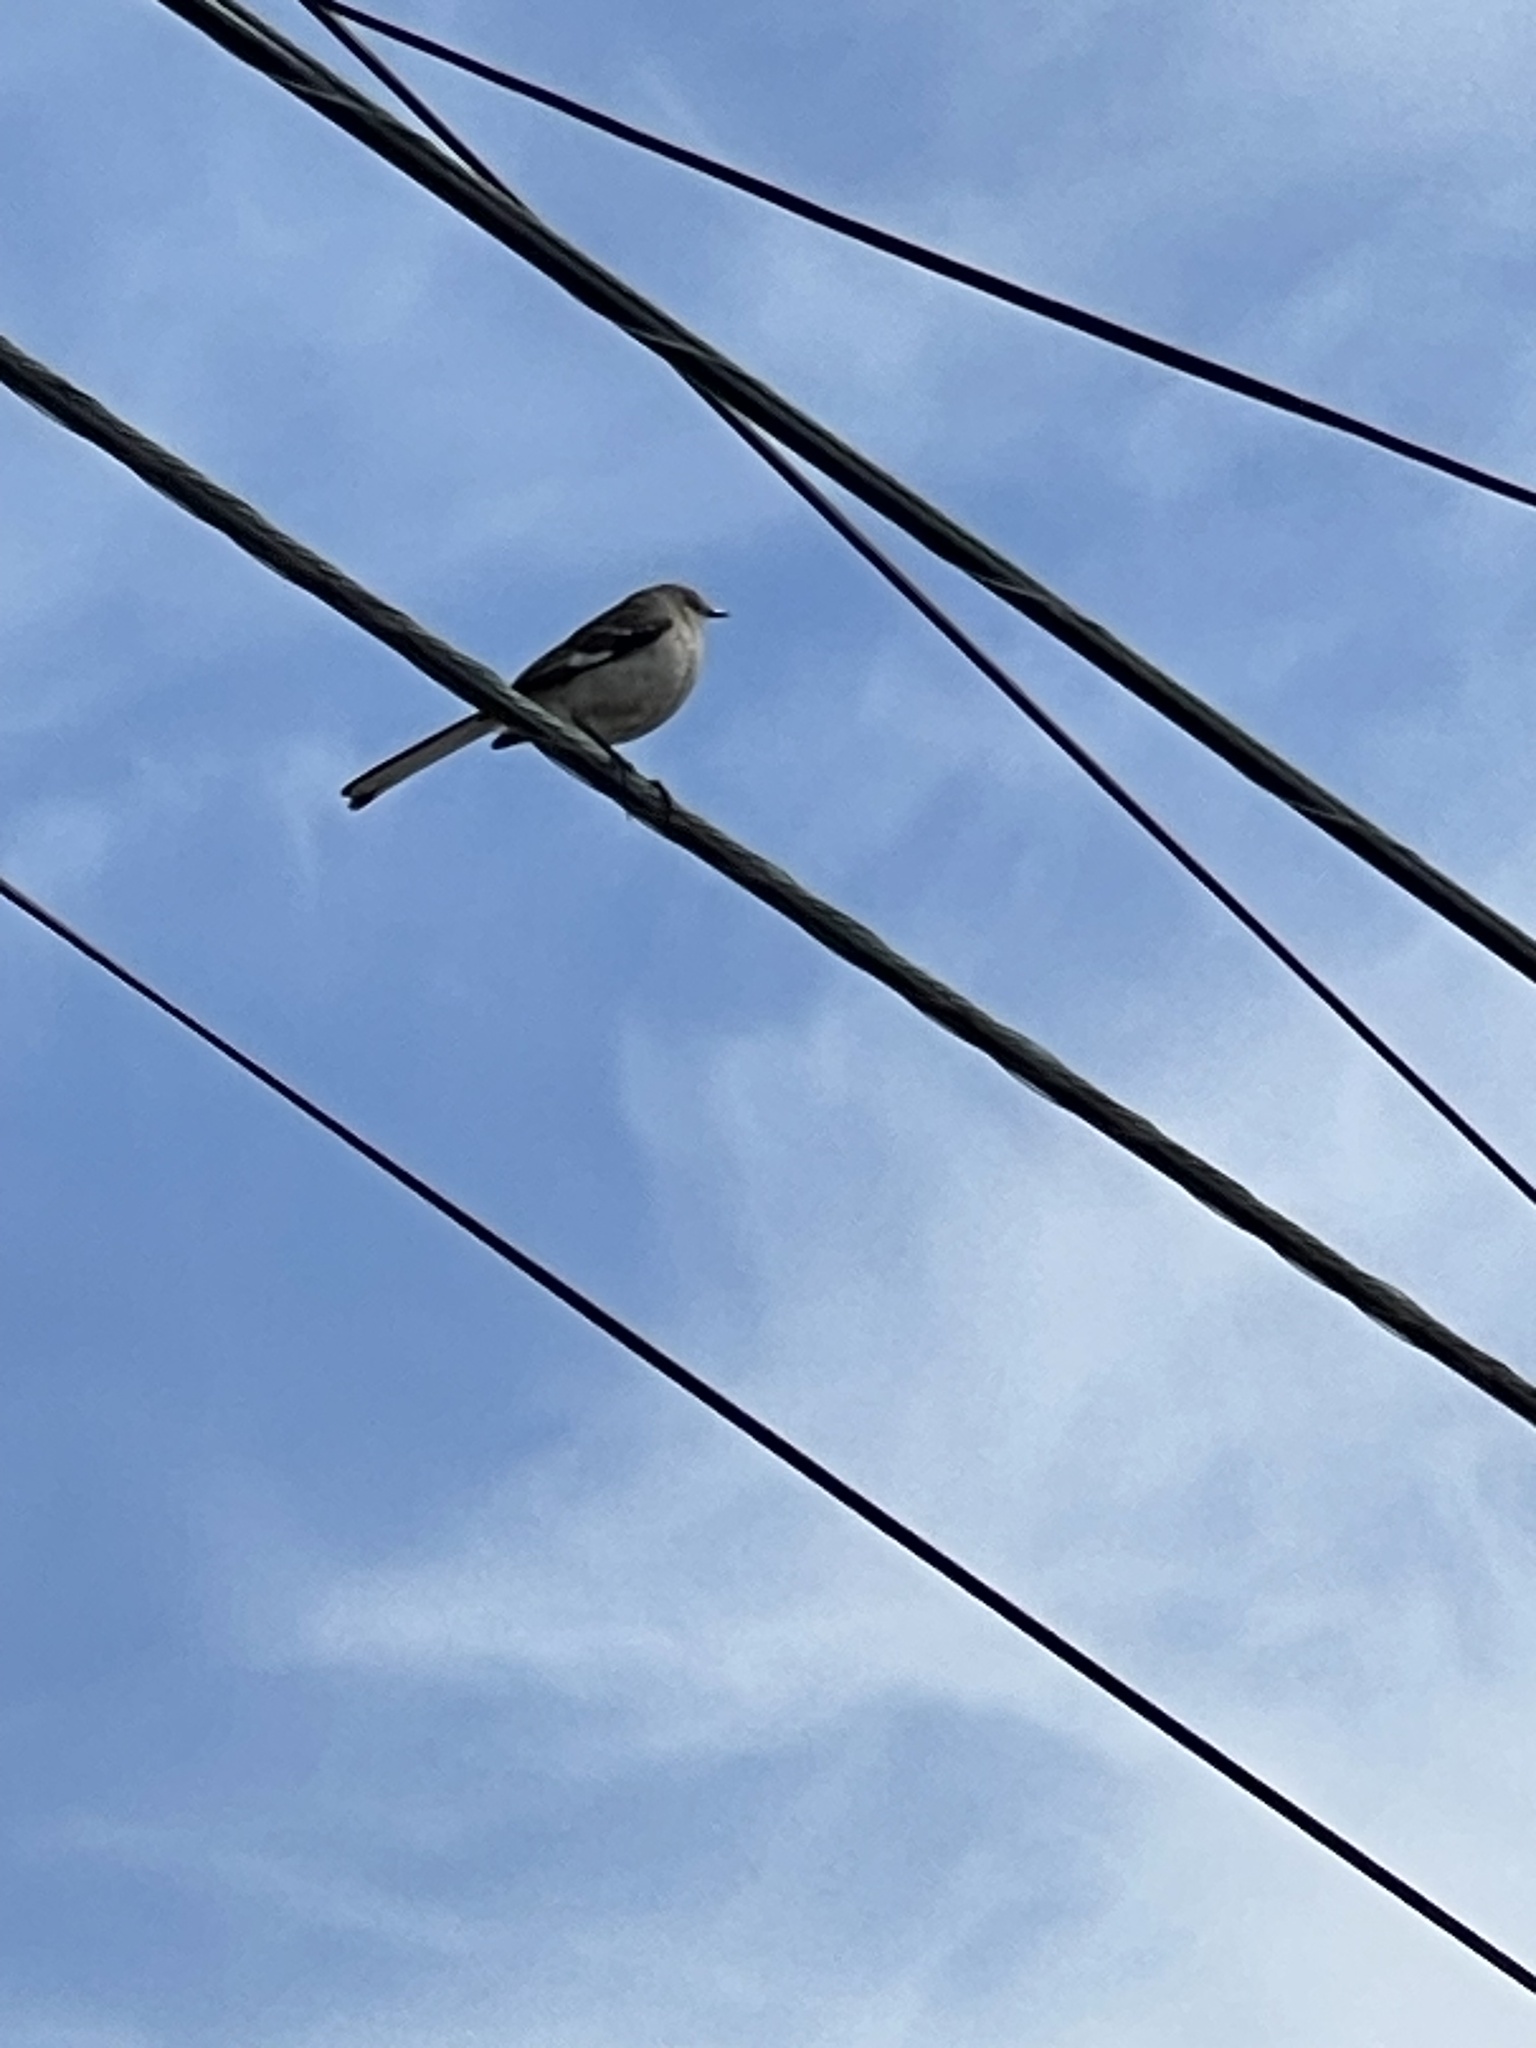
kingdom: Animalia
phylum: Chordata
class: Aves
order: Passeriformes
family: Mimidae
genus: Mimus
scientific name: Mimus polyglottos
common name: Northern mockingbird
